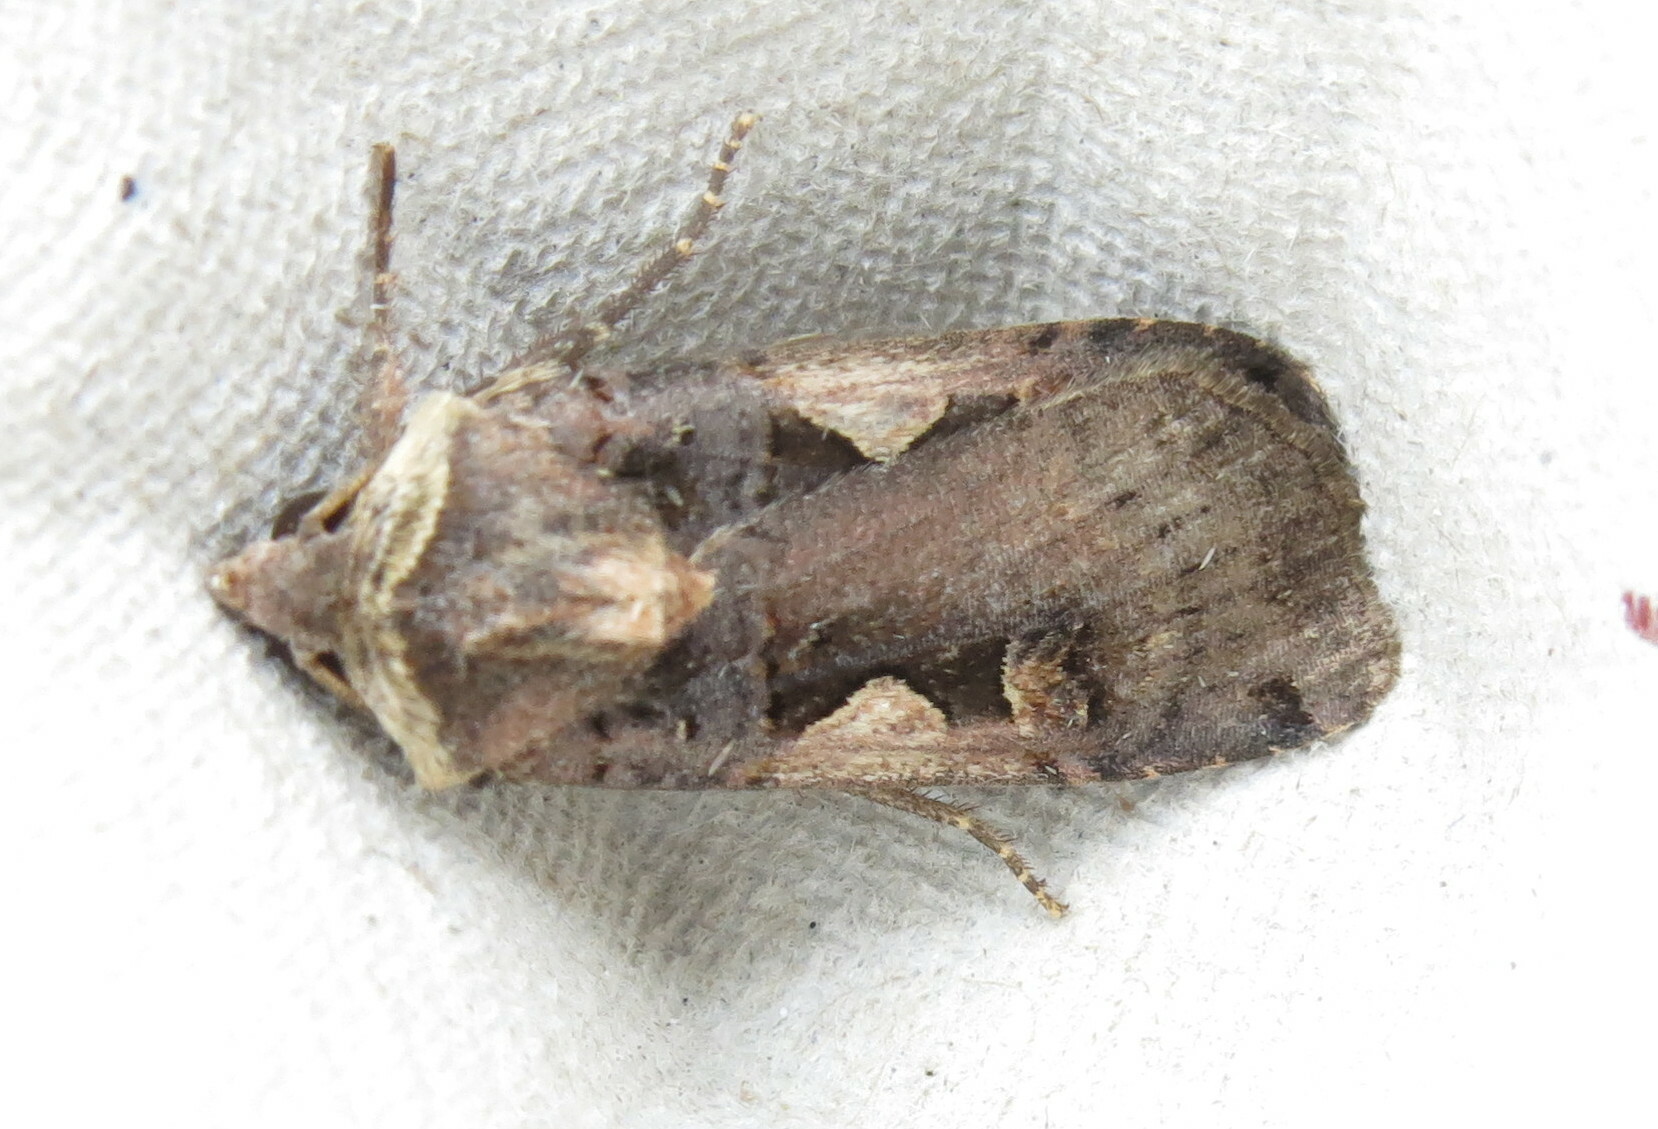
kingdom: Animalia
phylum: Arthropoda
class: Insecta
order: Lepidoptera
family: Noctuidae
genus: Xestia
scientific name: Xestia c-nigrum
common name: Setaceous hebrew character
